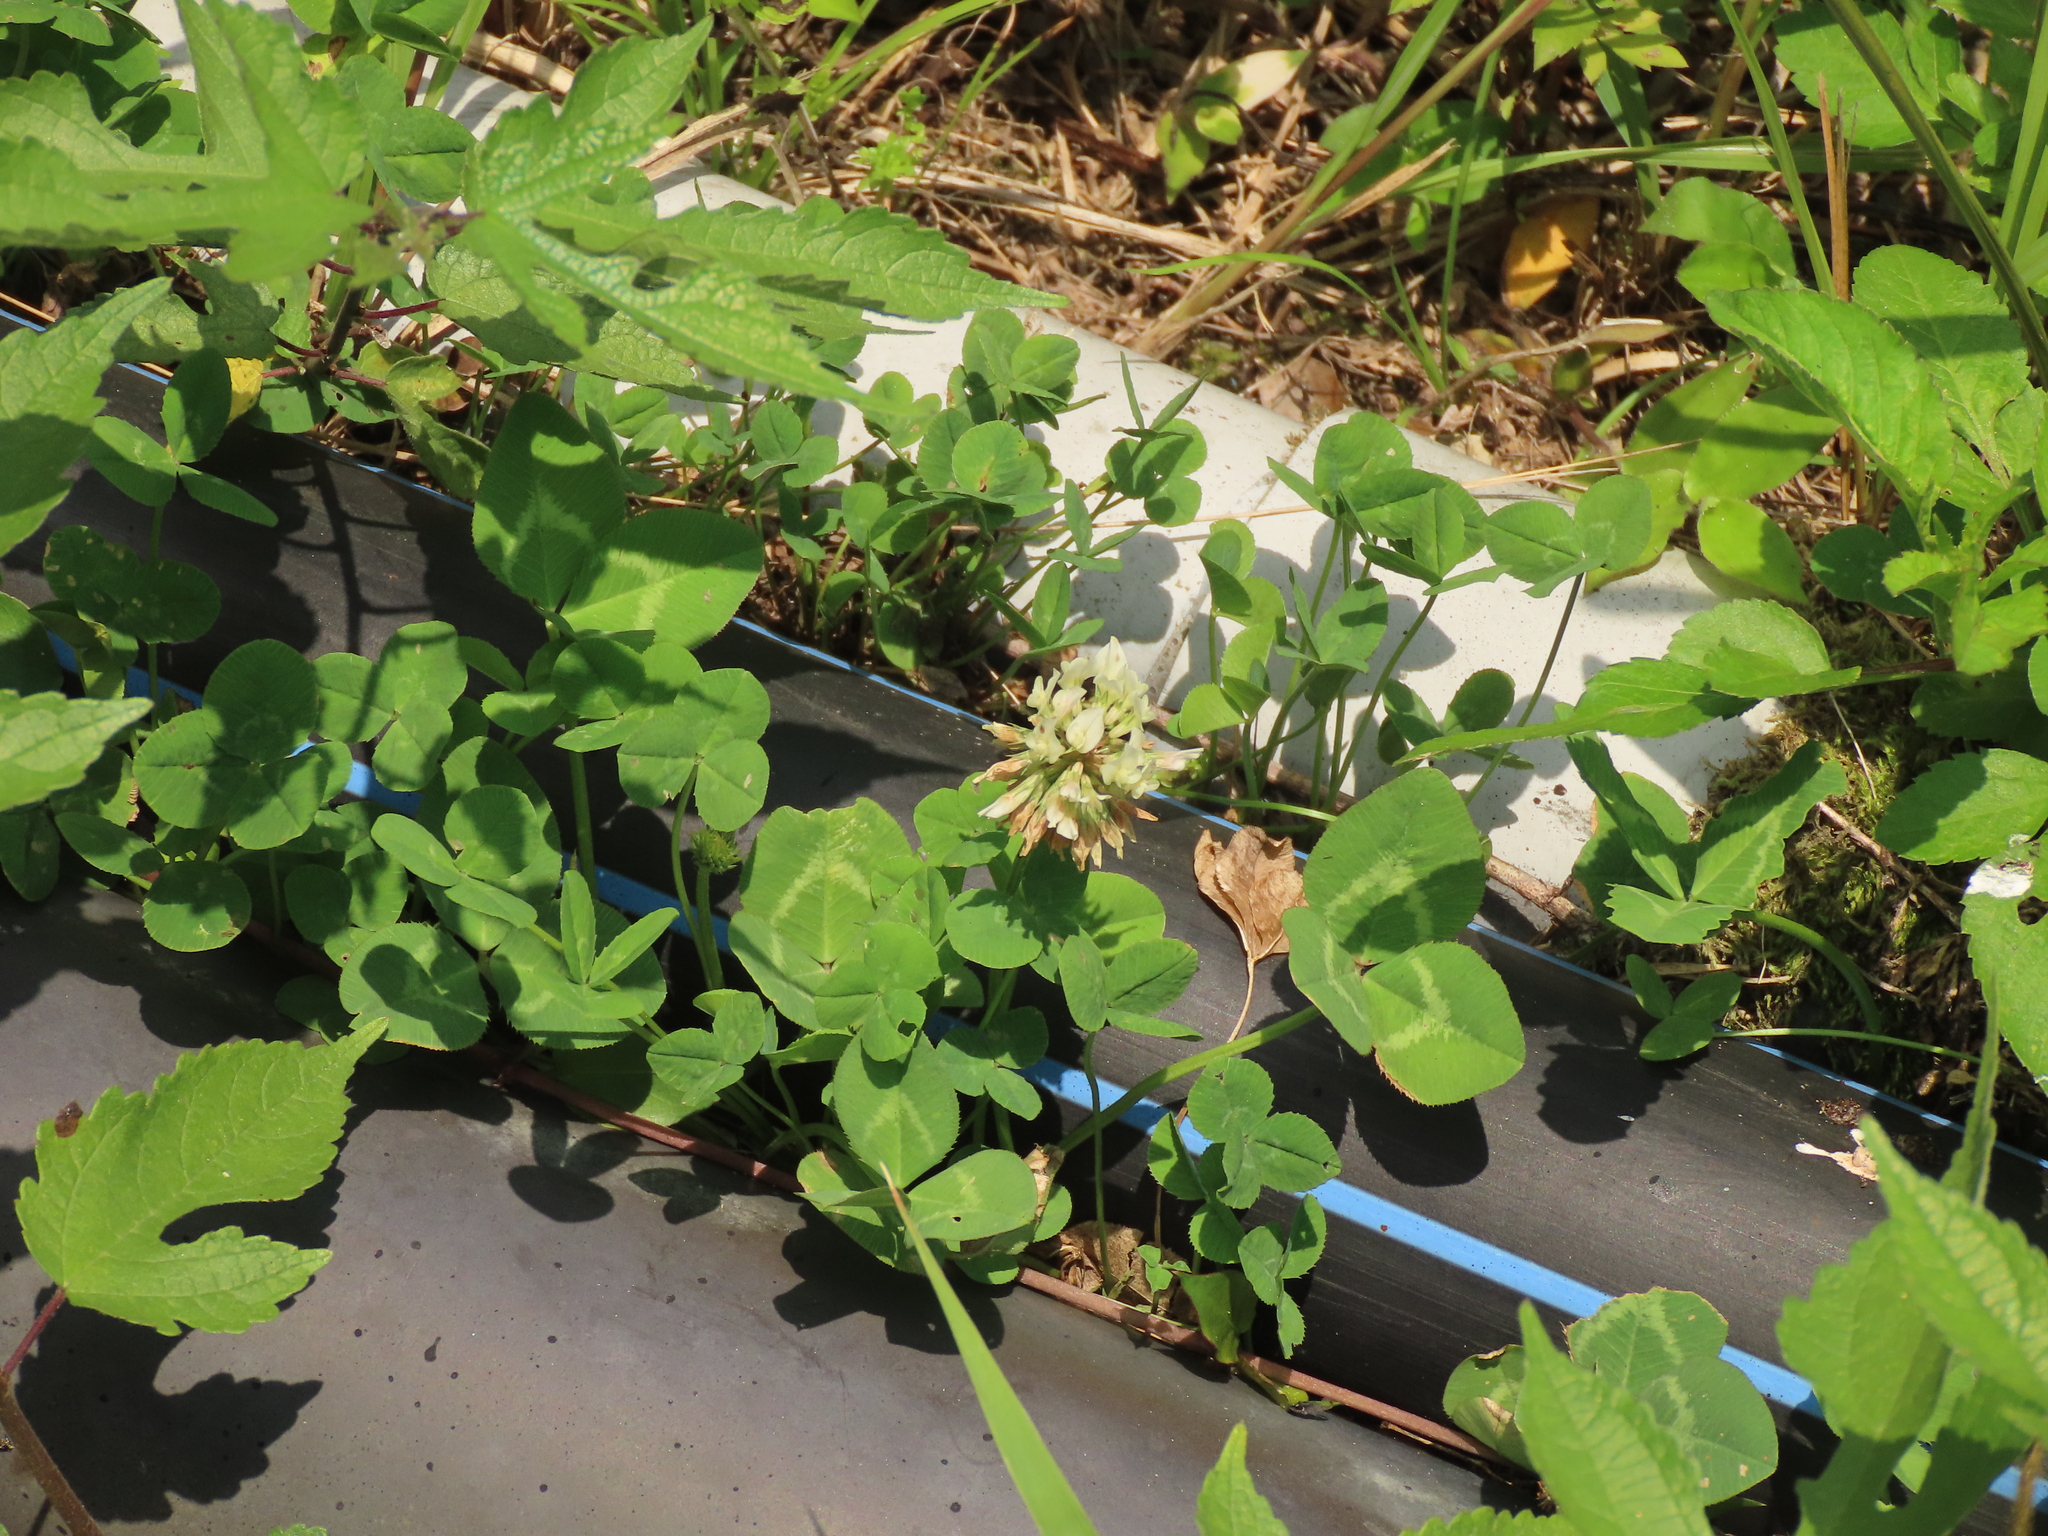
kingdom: Plantae
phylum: Tracheophyta
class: Magnoliopsida
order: Fabales
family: Fabaceae
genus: Trifolium
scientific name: Trifolium repens
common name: White clover
